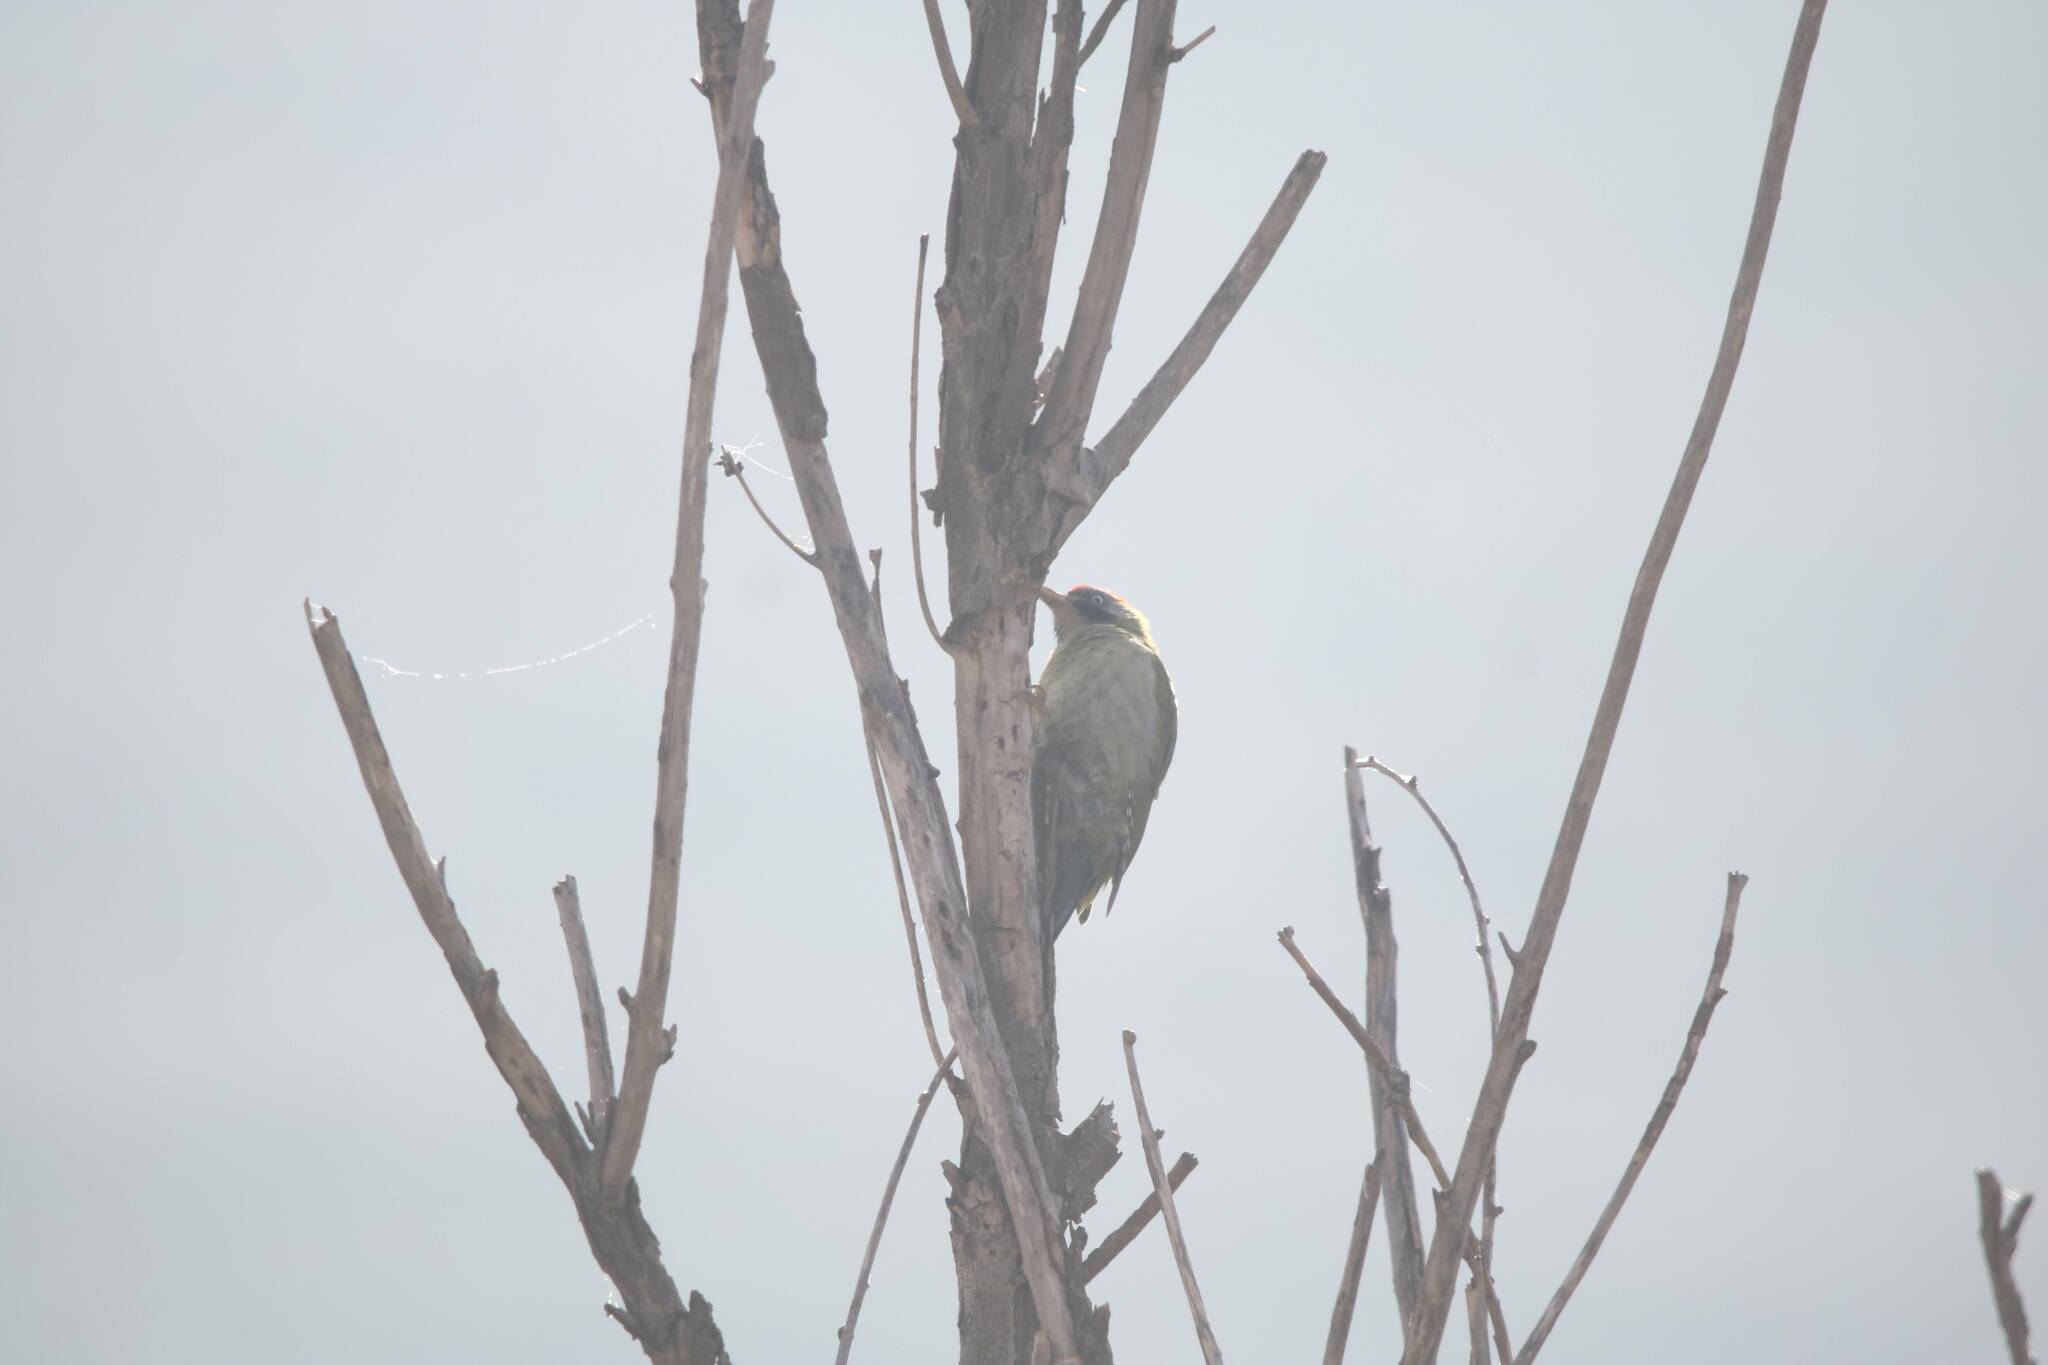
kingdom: Animalia
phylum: Chordata
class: Aves
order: Piciformes
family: Picidae
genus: Picus
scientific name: Picus vaillantii
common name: Levaillant's woodpecker
